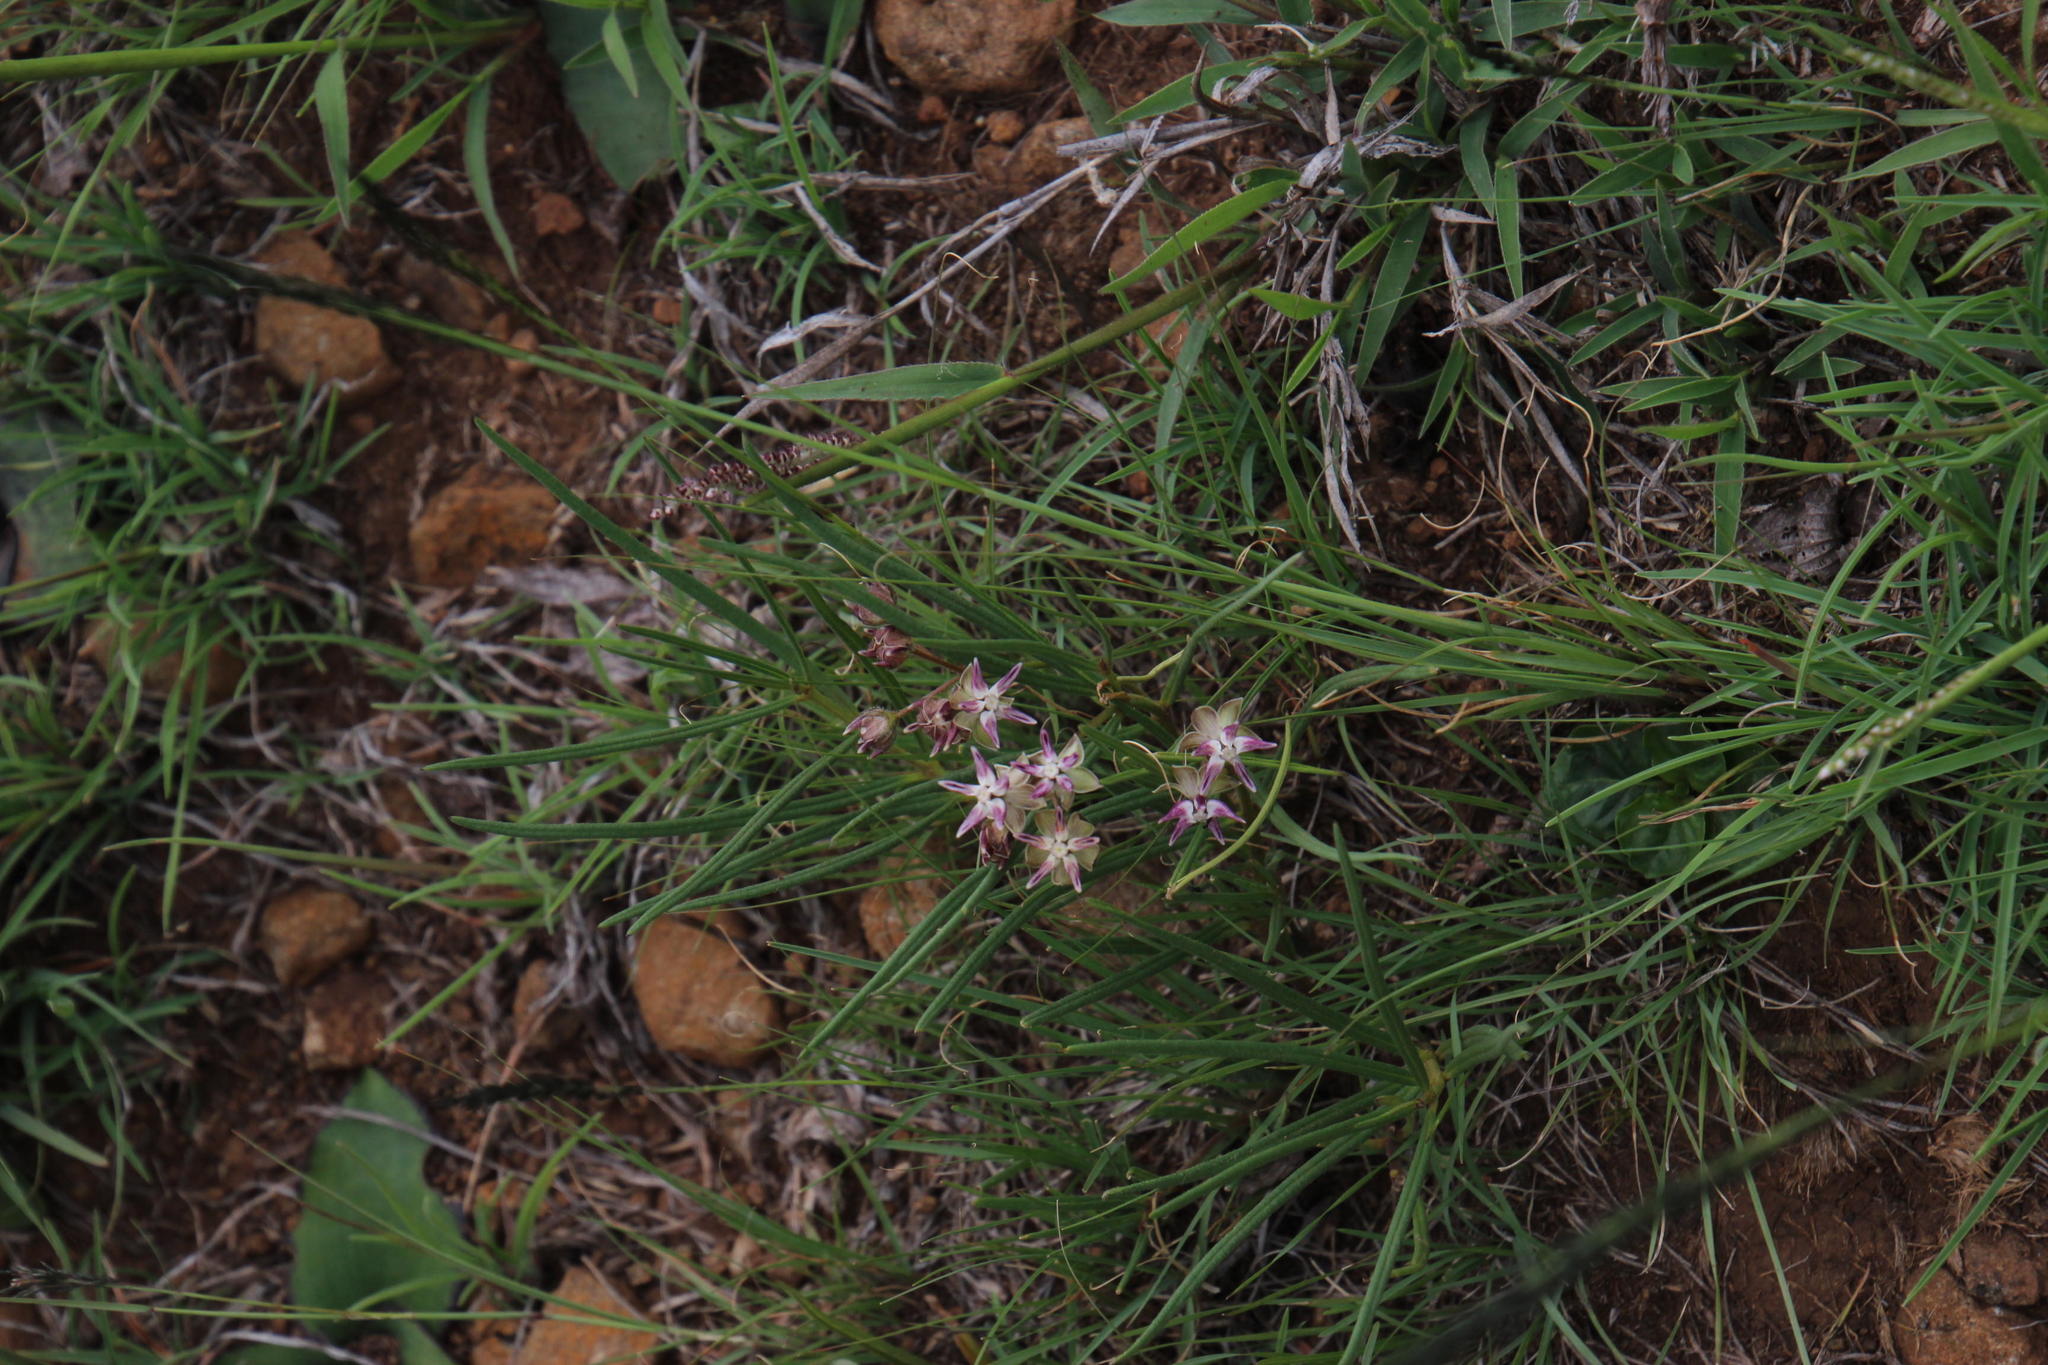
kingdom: Plantae
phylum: Tracheophyta
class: Magnoliopsida
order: Gentianales
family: Apocynaceae
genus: Asclepias
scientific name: Asclepias stellifera
